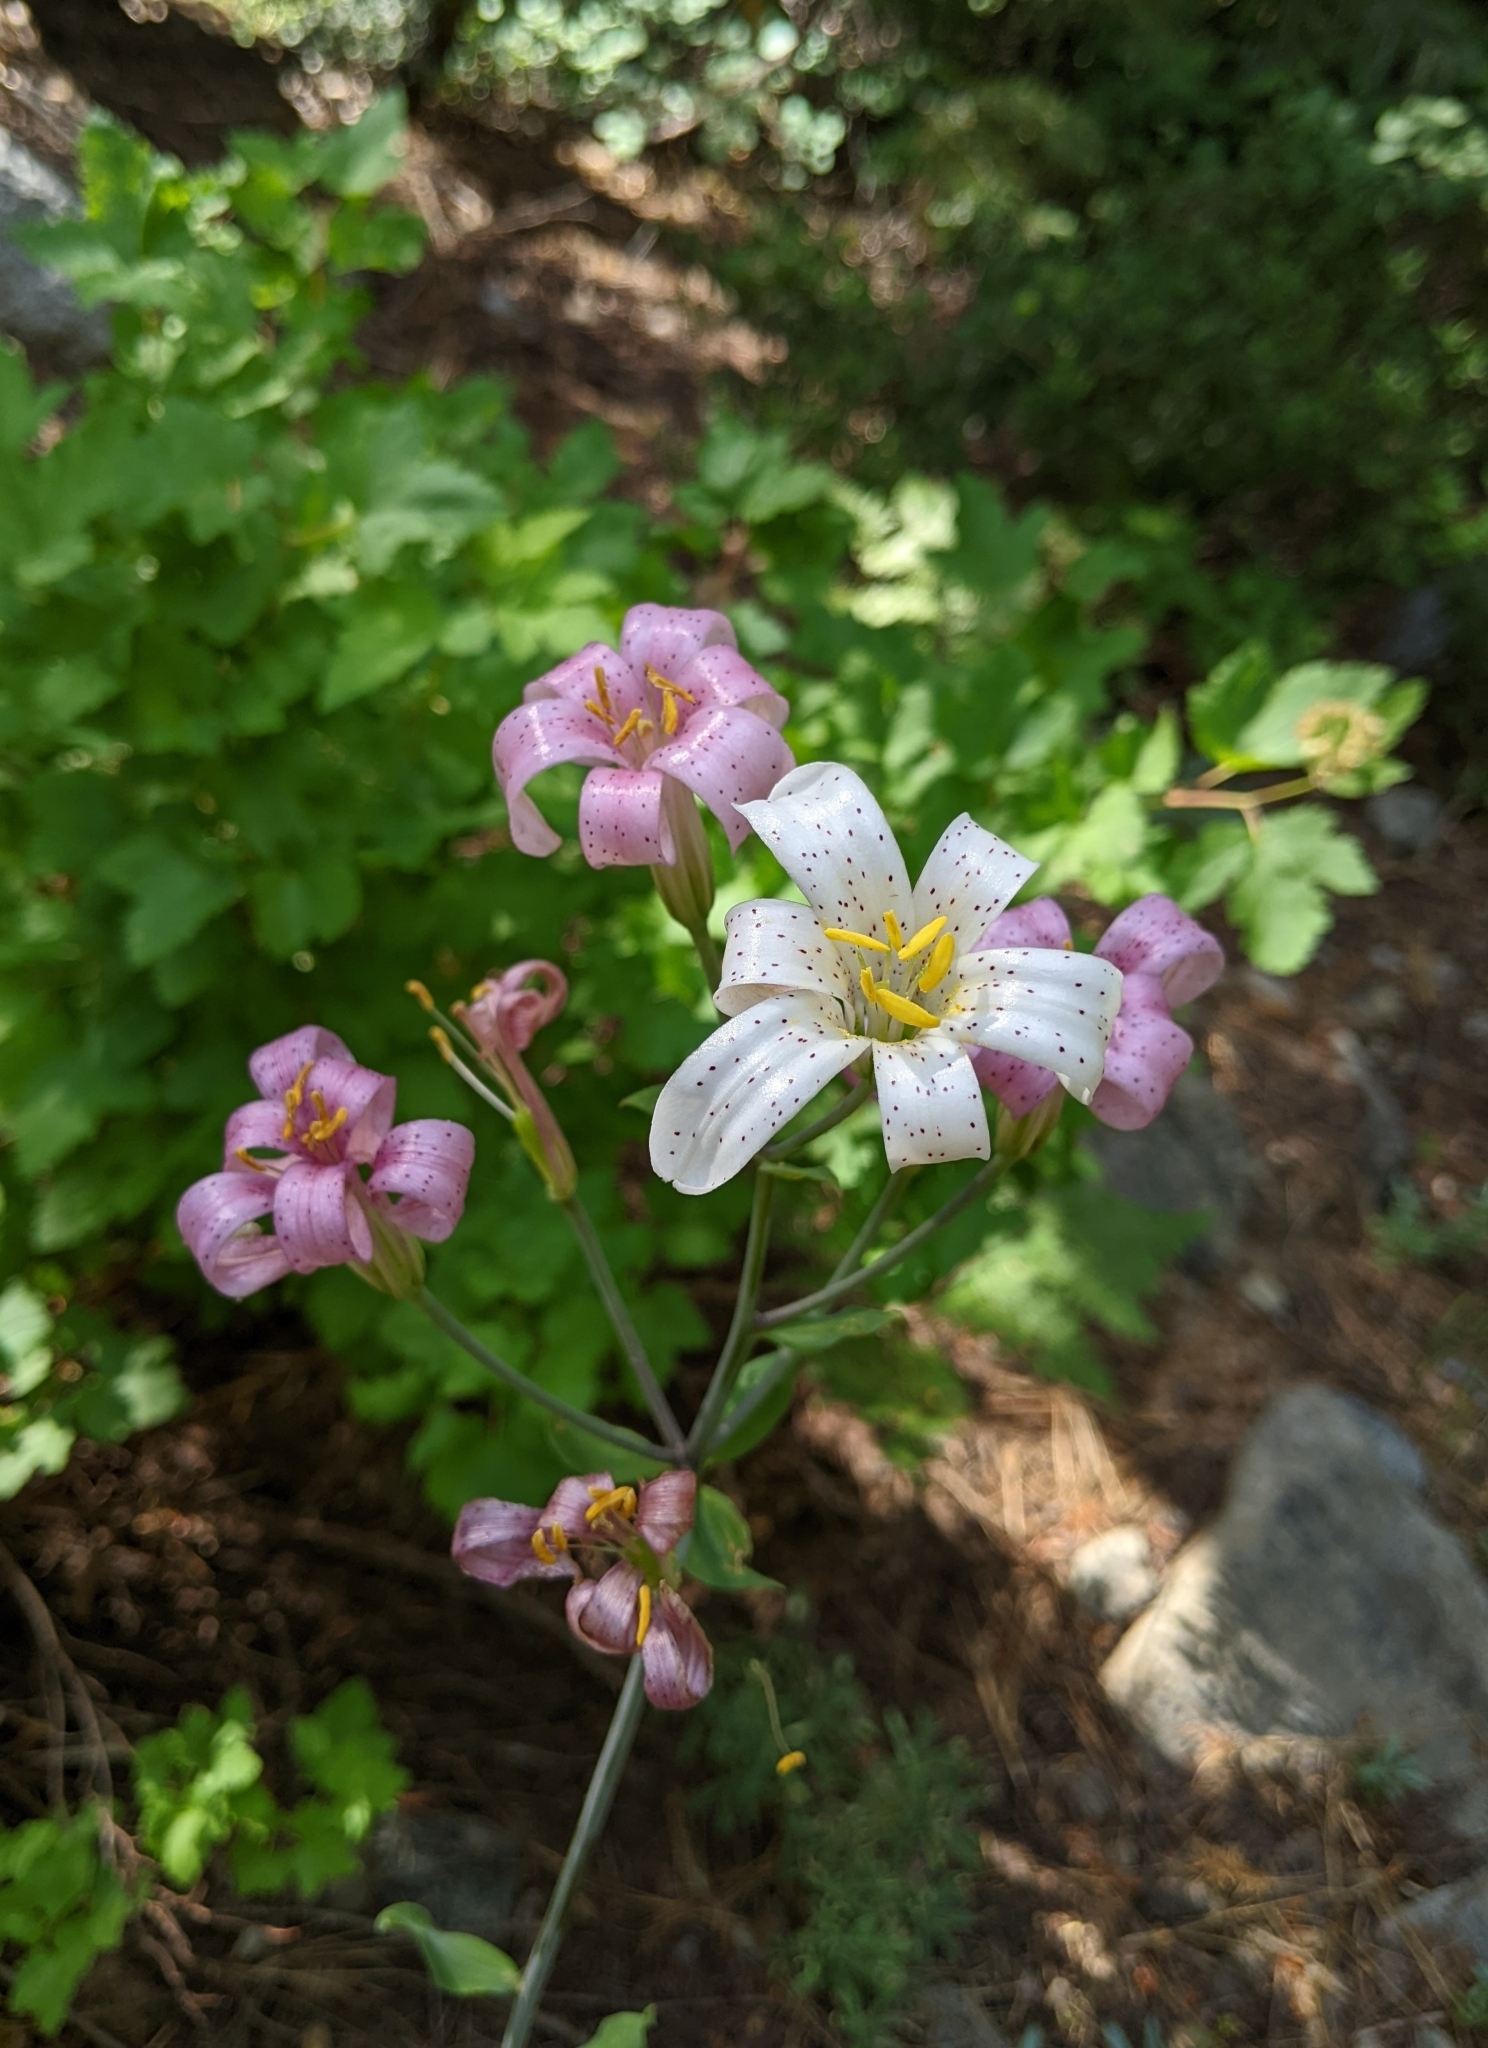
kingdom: Plantae
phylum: Tracheophyta
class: Liliopsida
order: Liliales
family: Liliaceae
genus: Lilium
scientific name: Lilium rubescens
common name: Chamise lily
